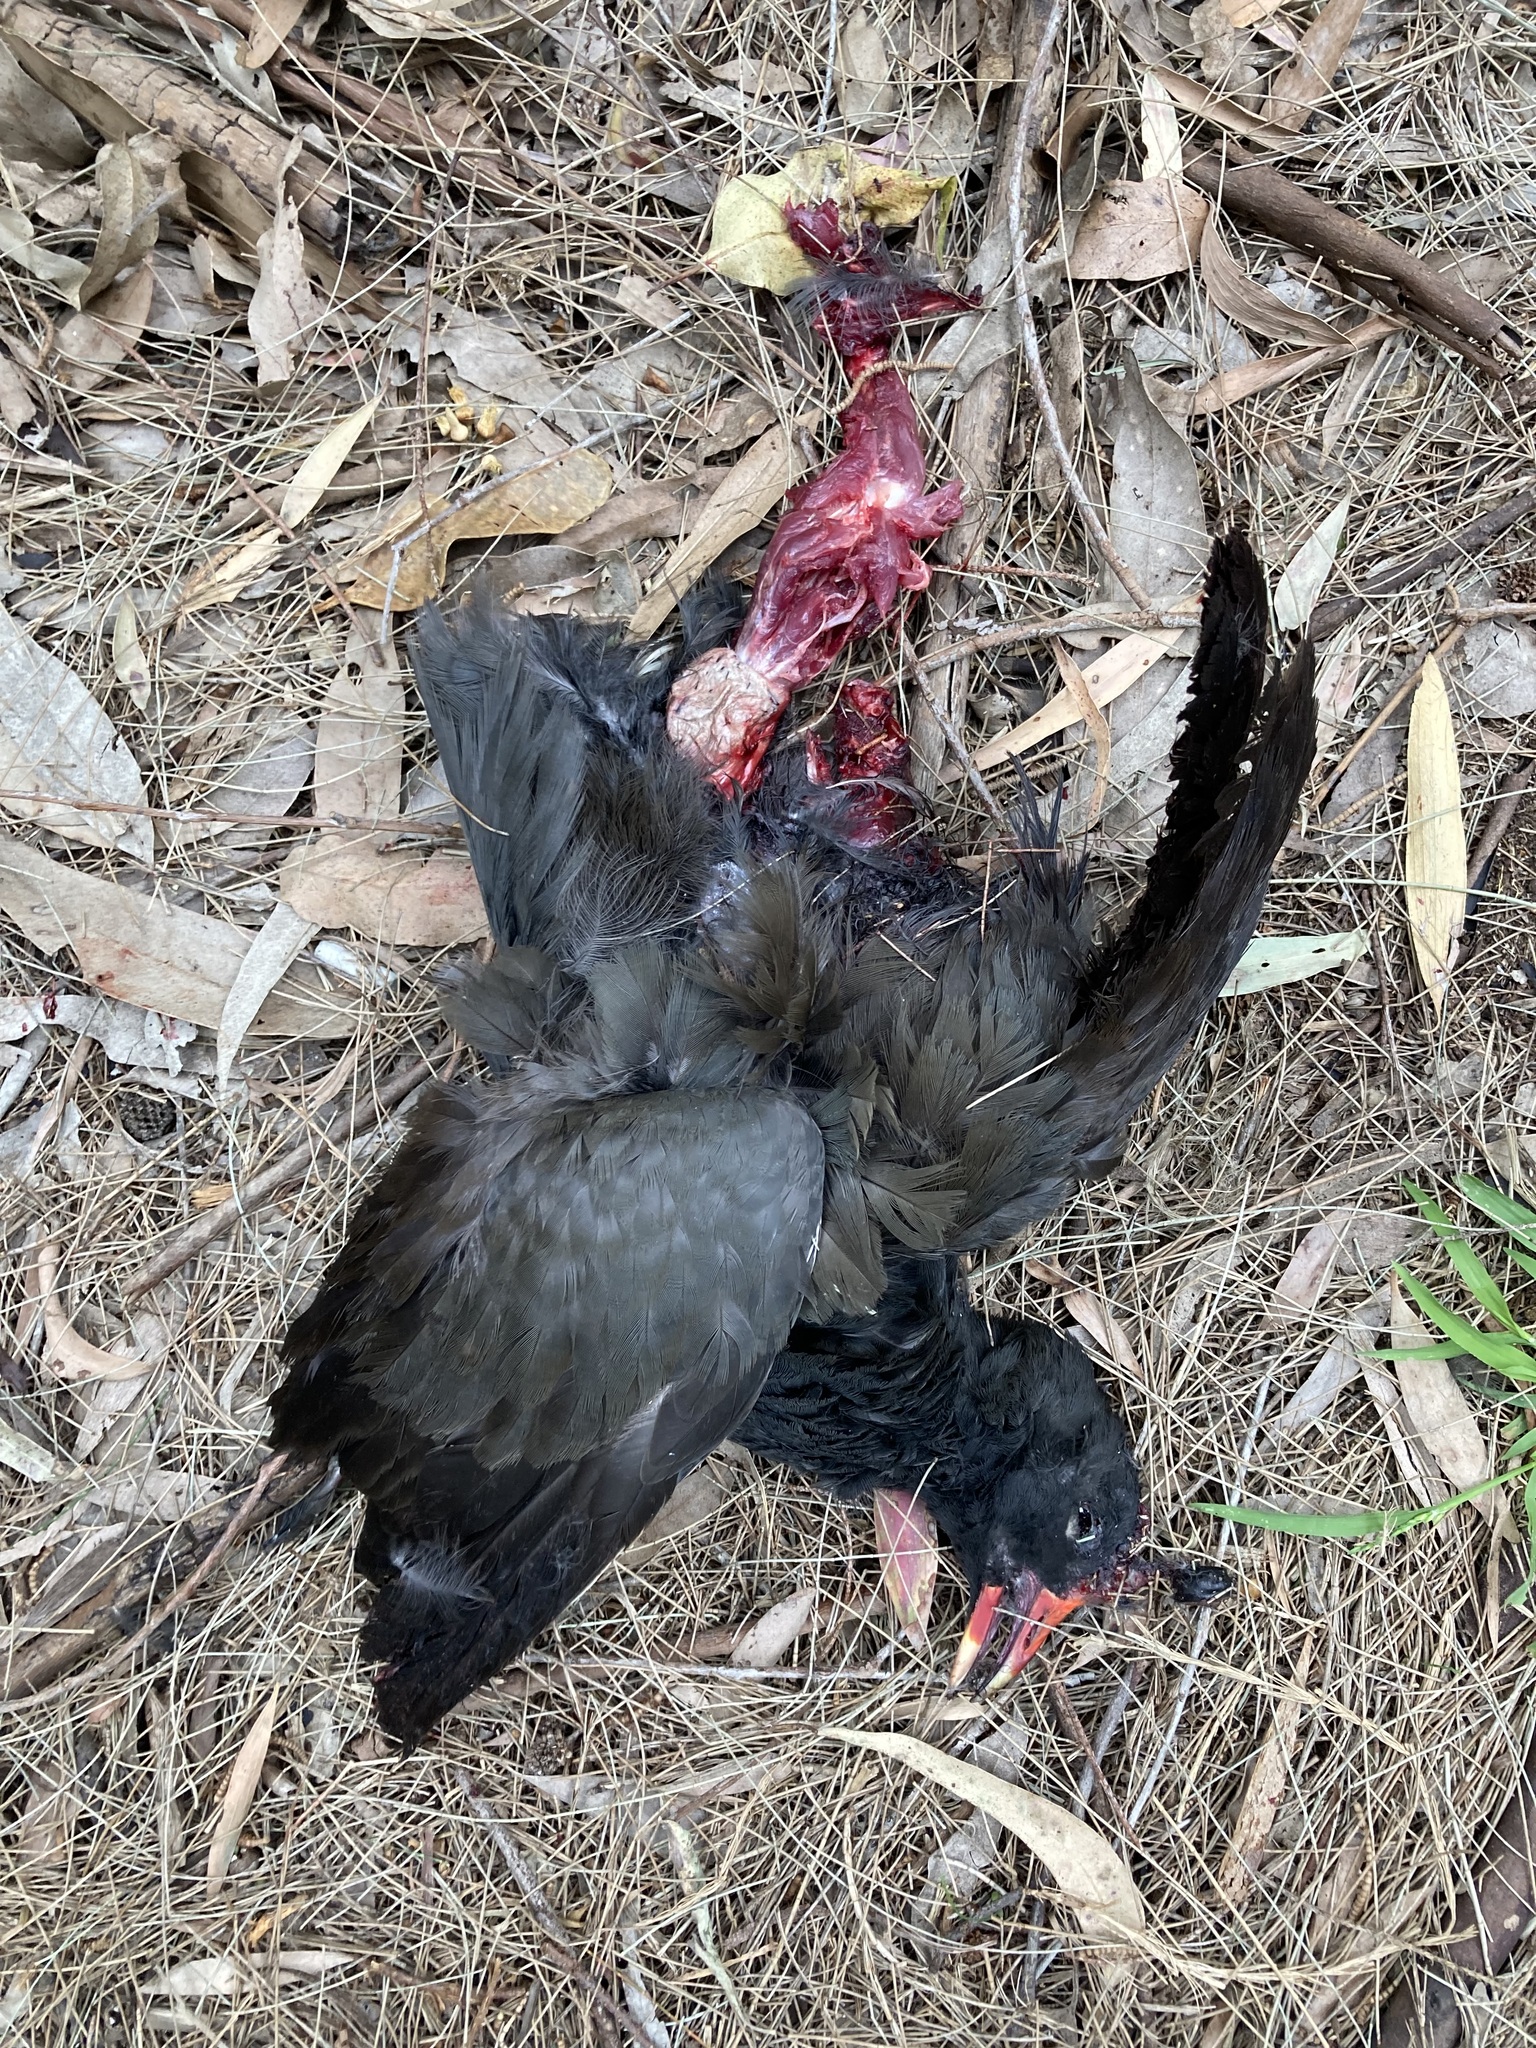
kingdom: Animalia
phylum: Chordata
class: Aves
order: Gruiformes
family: Rallidae
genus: Gallinula
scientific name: Gallinula tenebrosa
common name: Dusky moorhen
